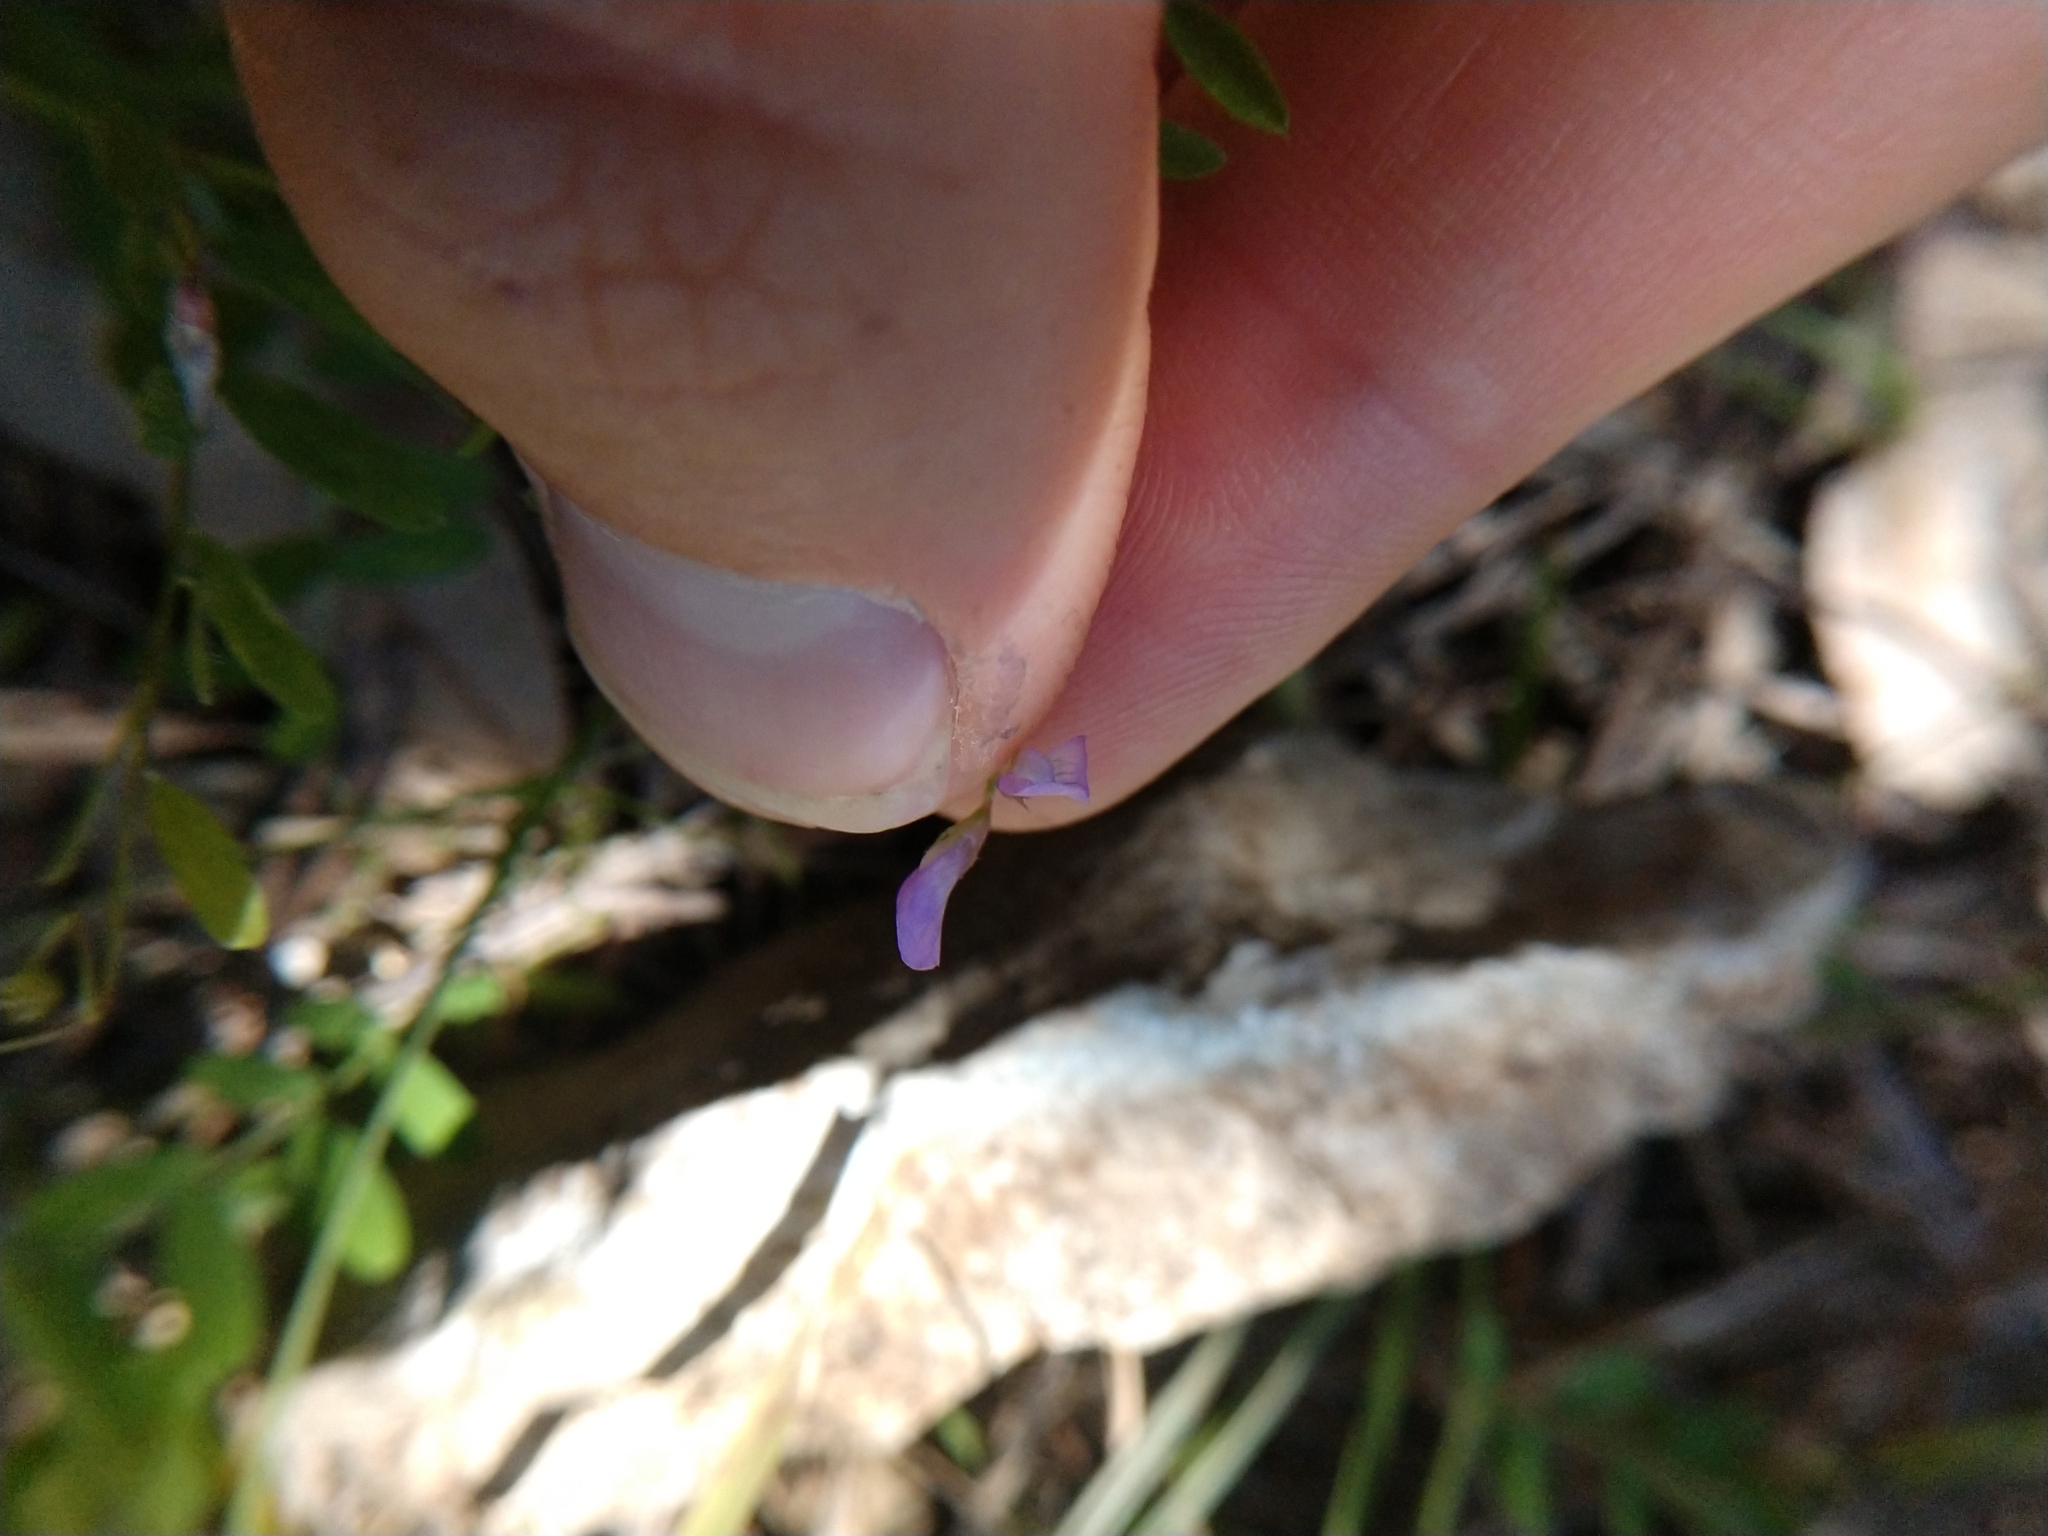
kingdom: Plantae
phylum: Tracheophyta
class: Magnoliopsida
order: Fabales
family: Fabaceae
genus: Vicia
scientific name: Vicia ludoviciana
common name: Louisiana vetch
